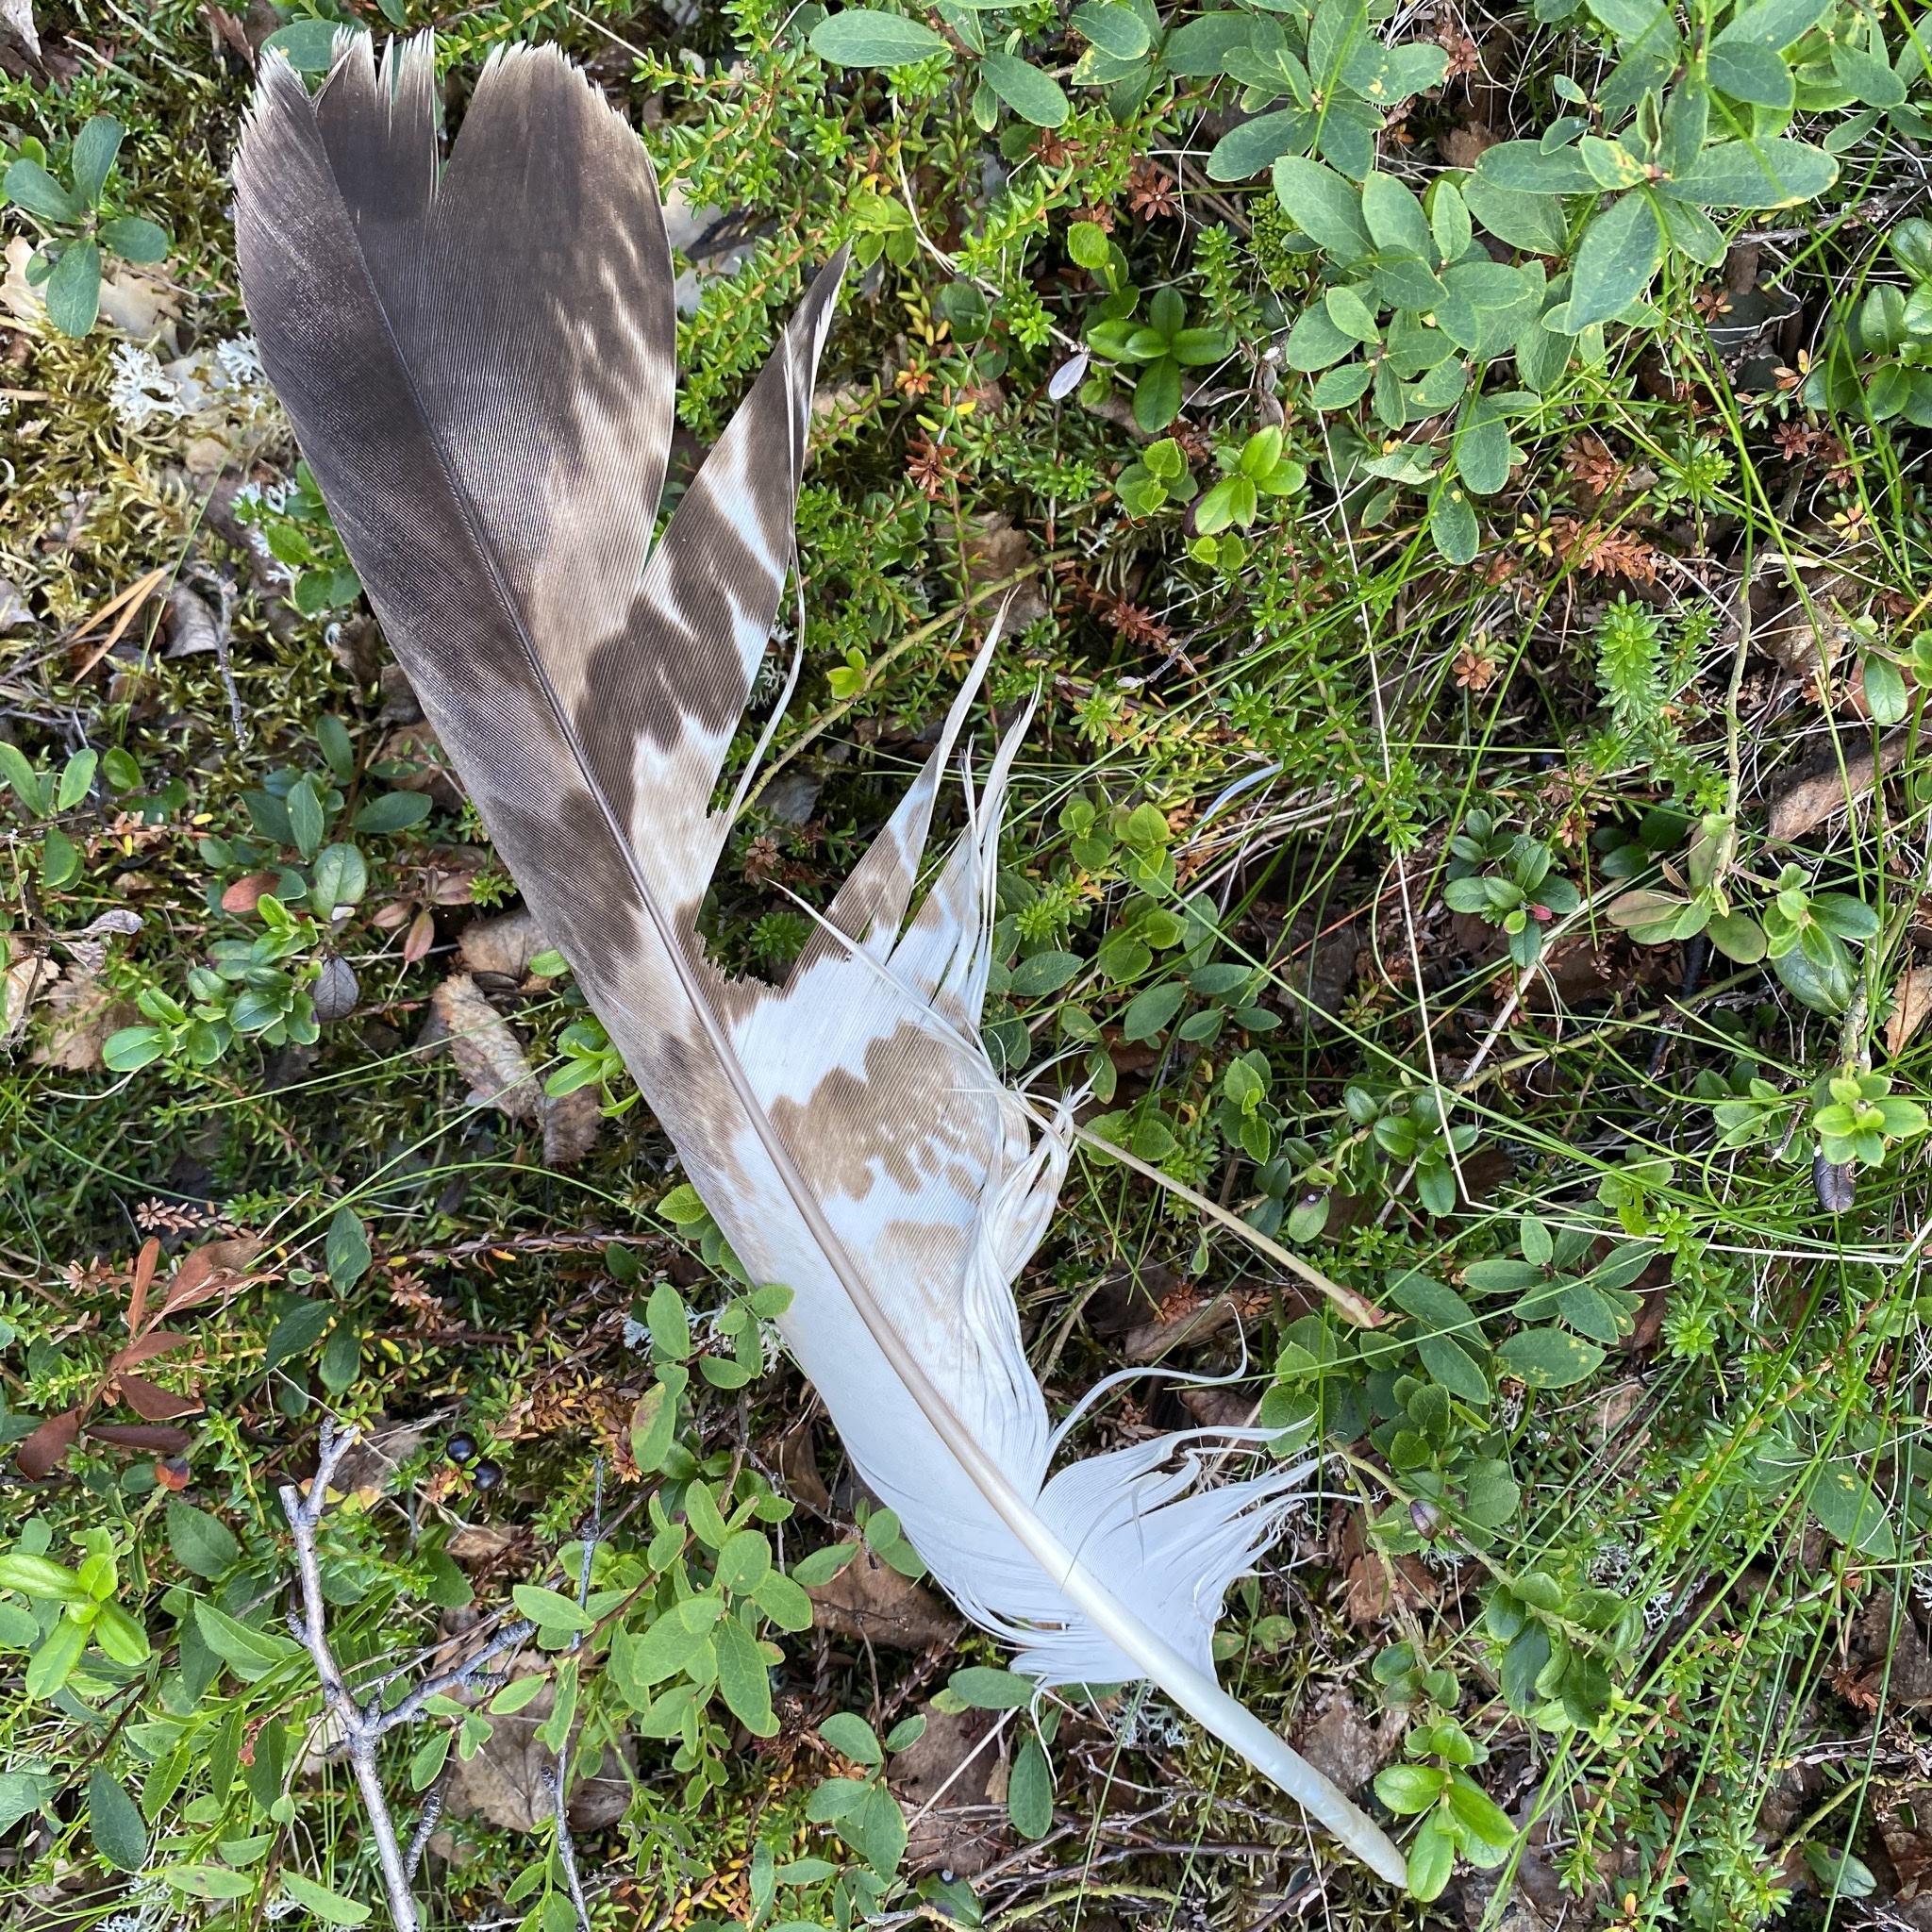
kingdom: Animalia
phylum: Chordata
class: Aves
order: Accipitriformes
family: Accipitridae
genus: Aquila
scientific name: Aquila chrysaetos
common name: Golden eagle
